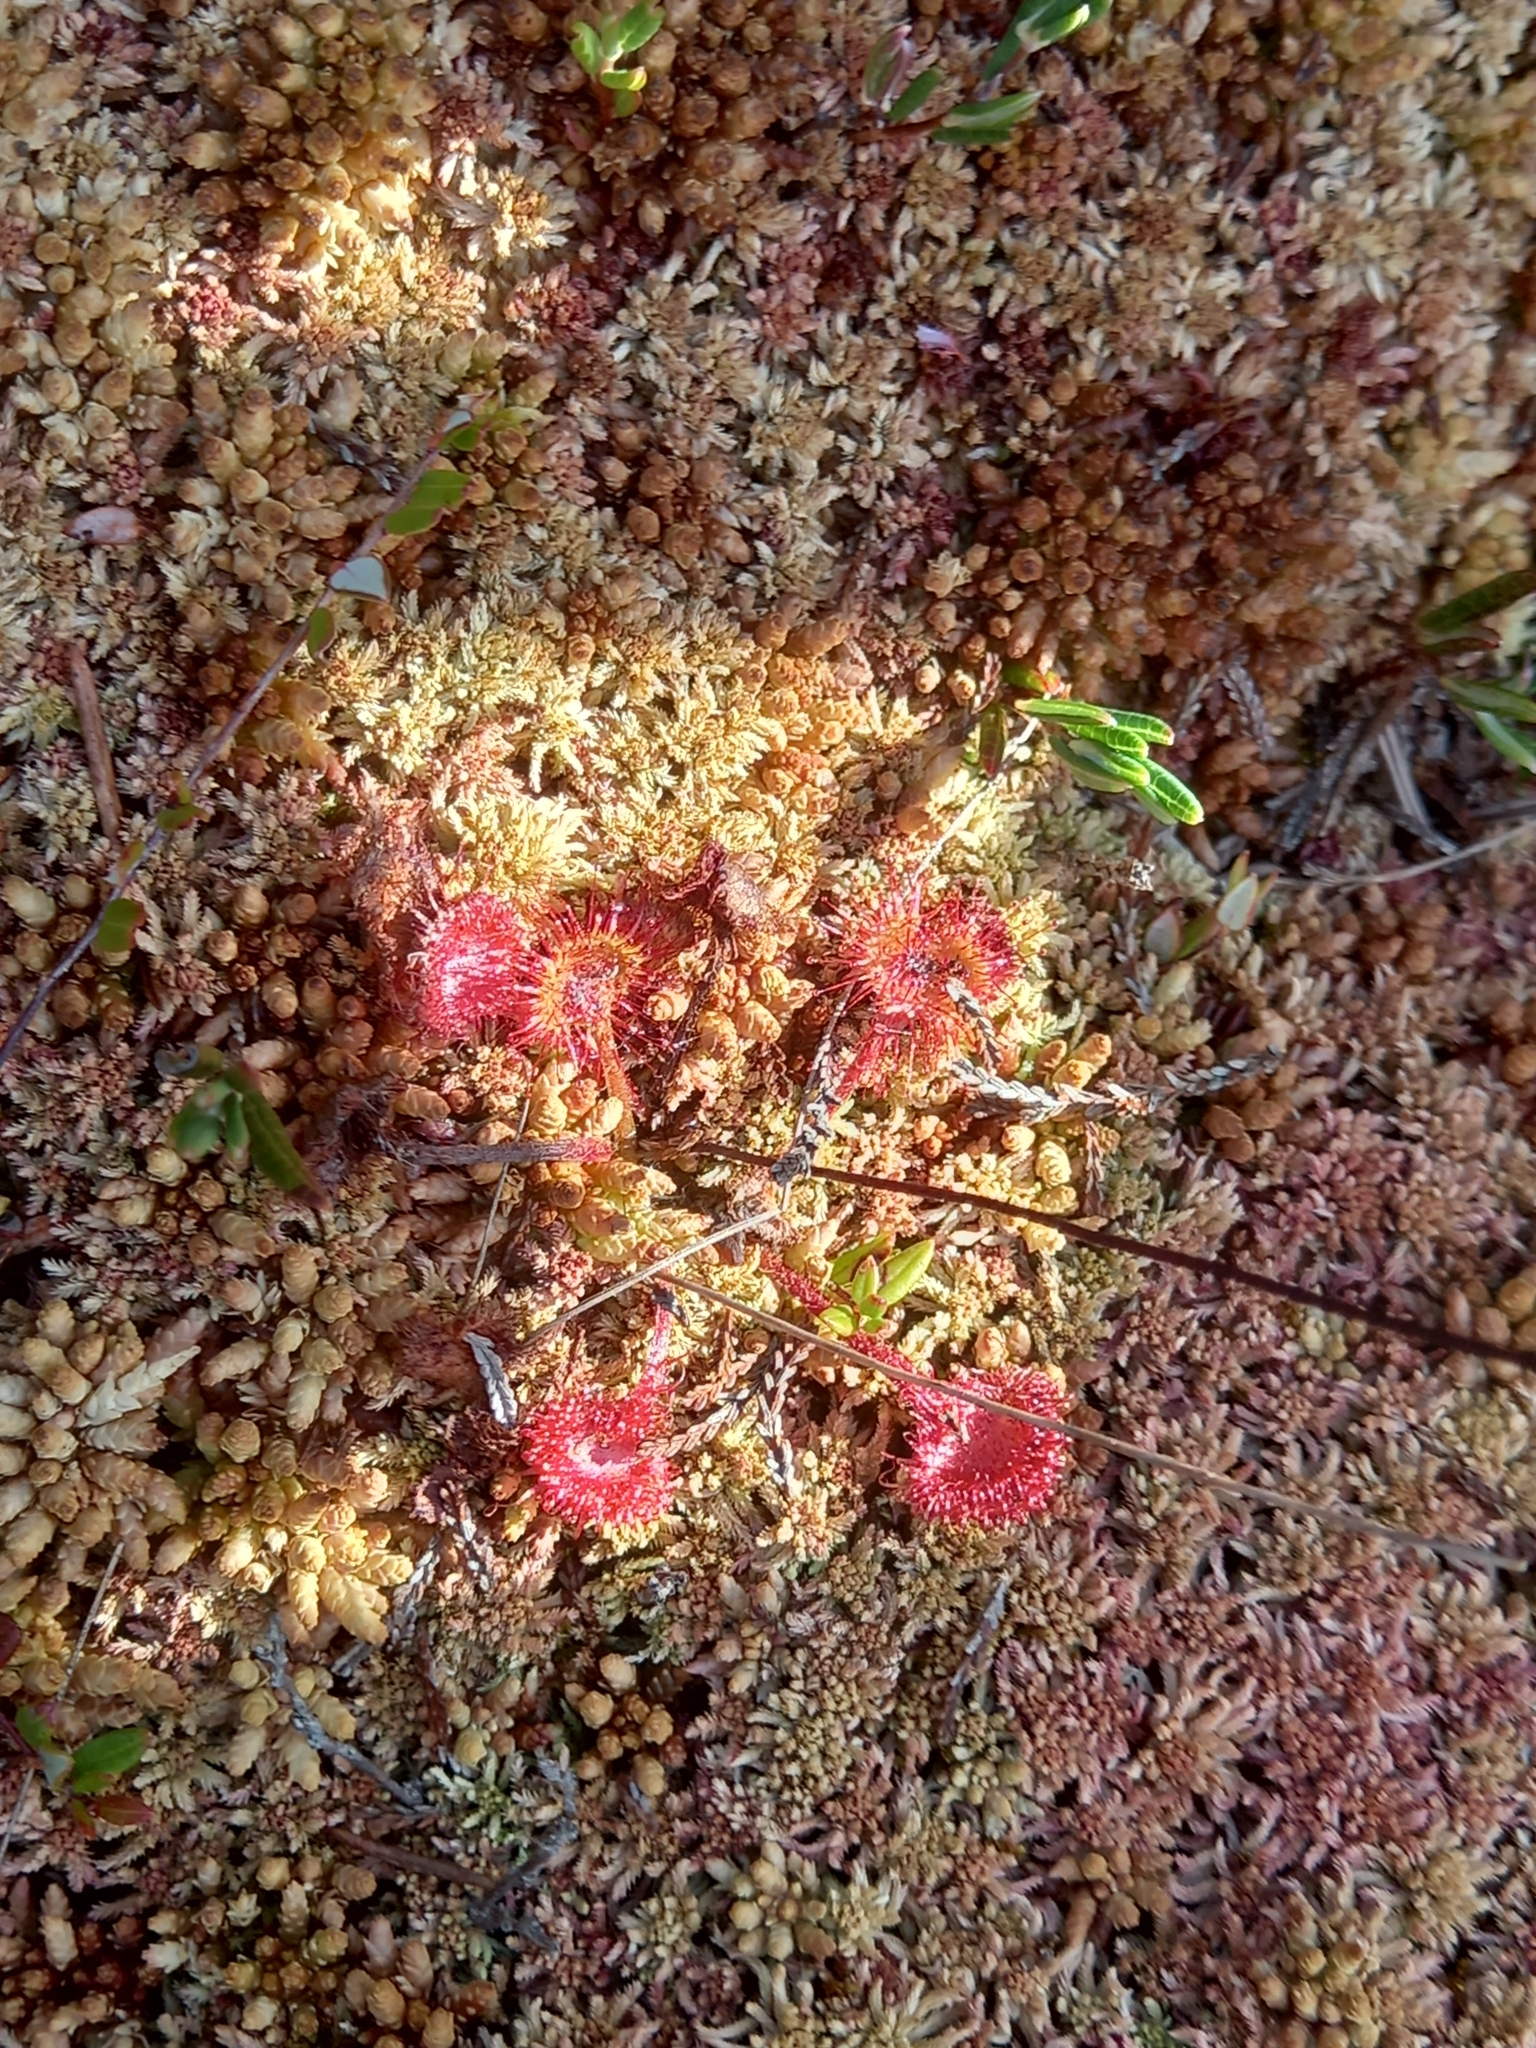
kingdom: Plantae
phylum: Tracheophyta
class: Magnoliopsida
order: Caryophyllales
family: Droseraceae
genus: Drosera
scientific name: Drosera rotundifolia
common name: Round-leaved sundew
